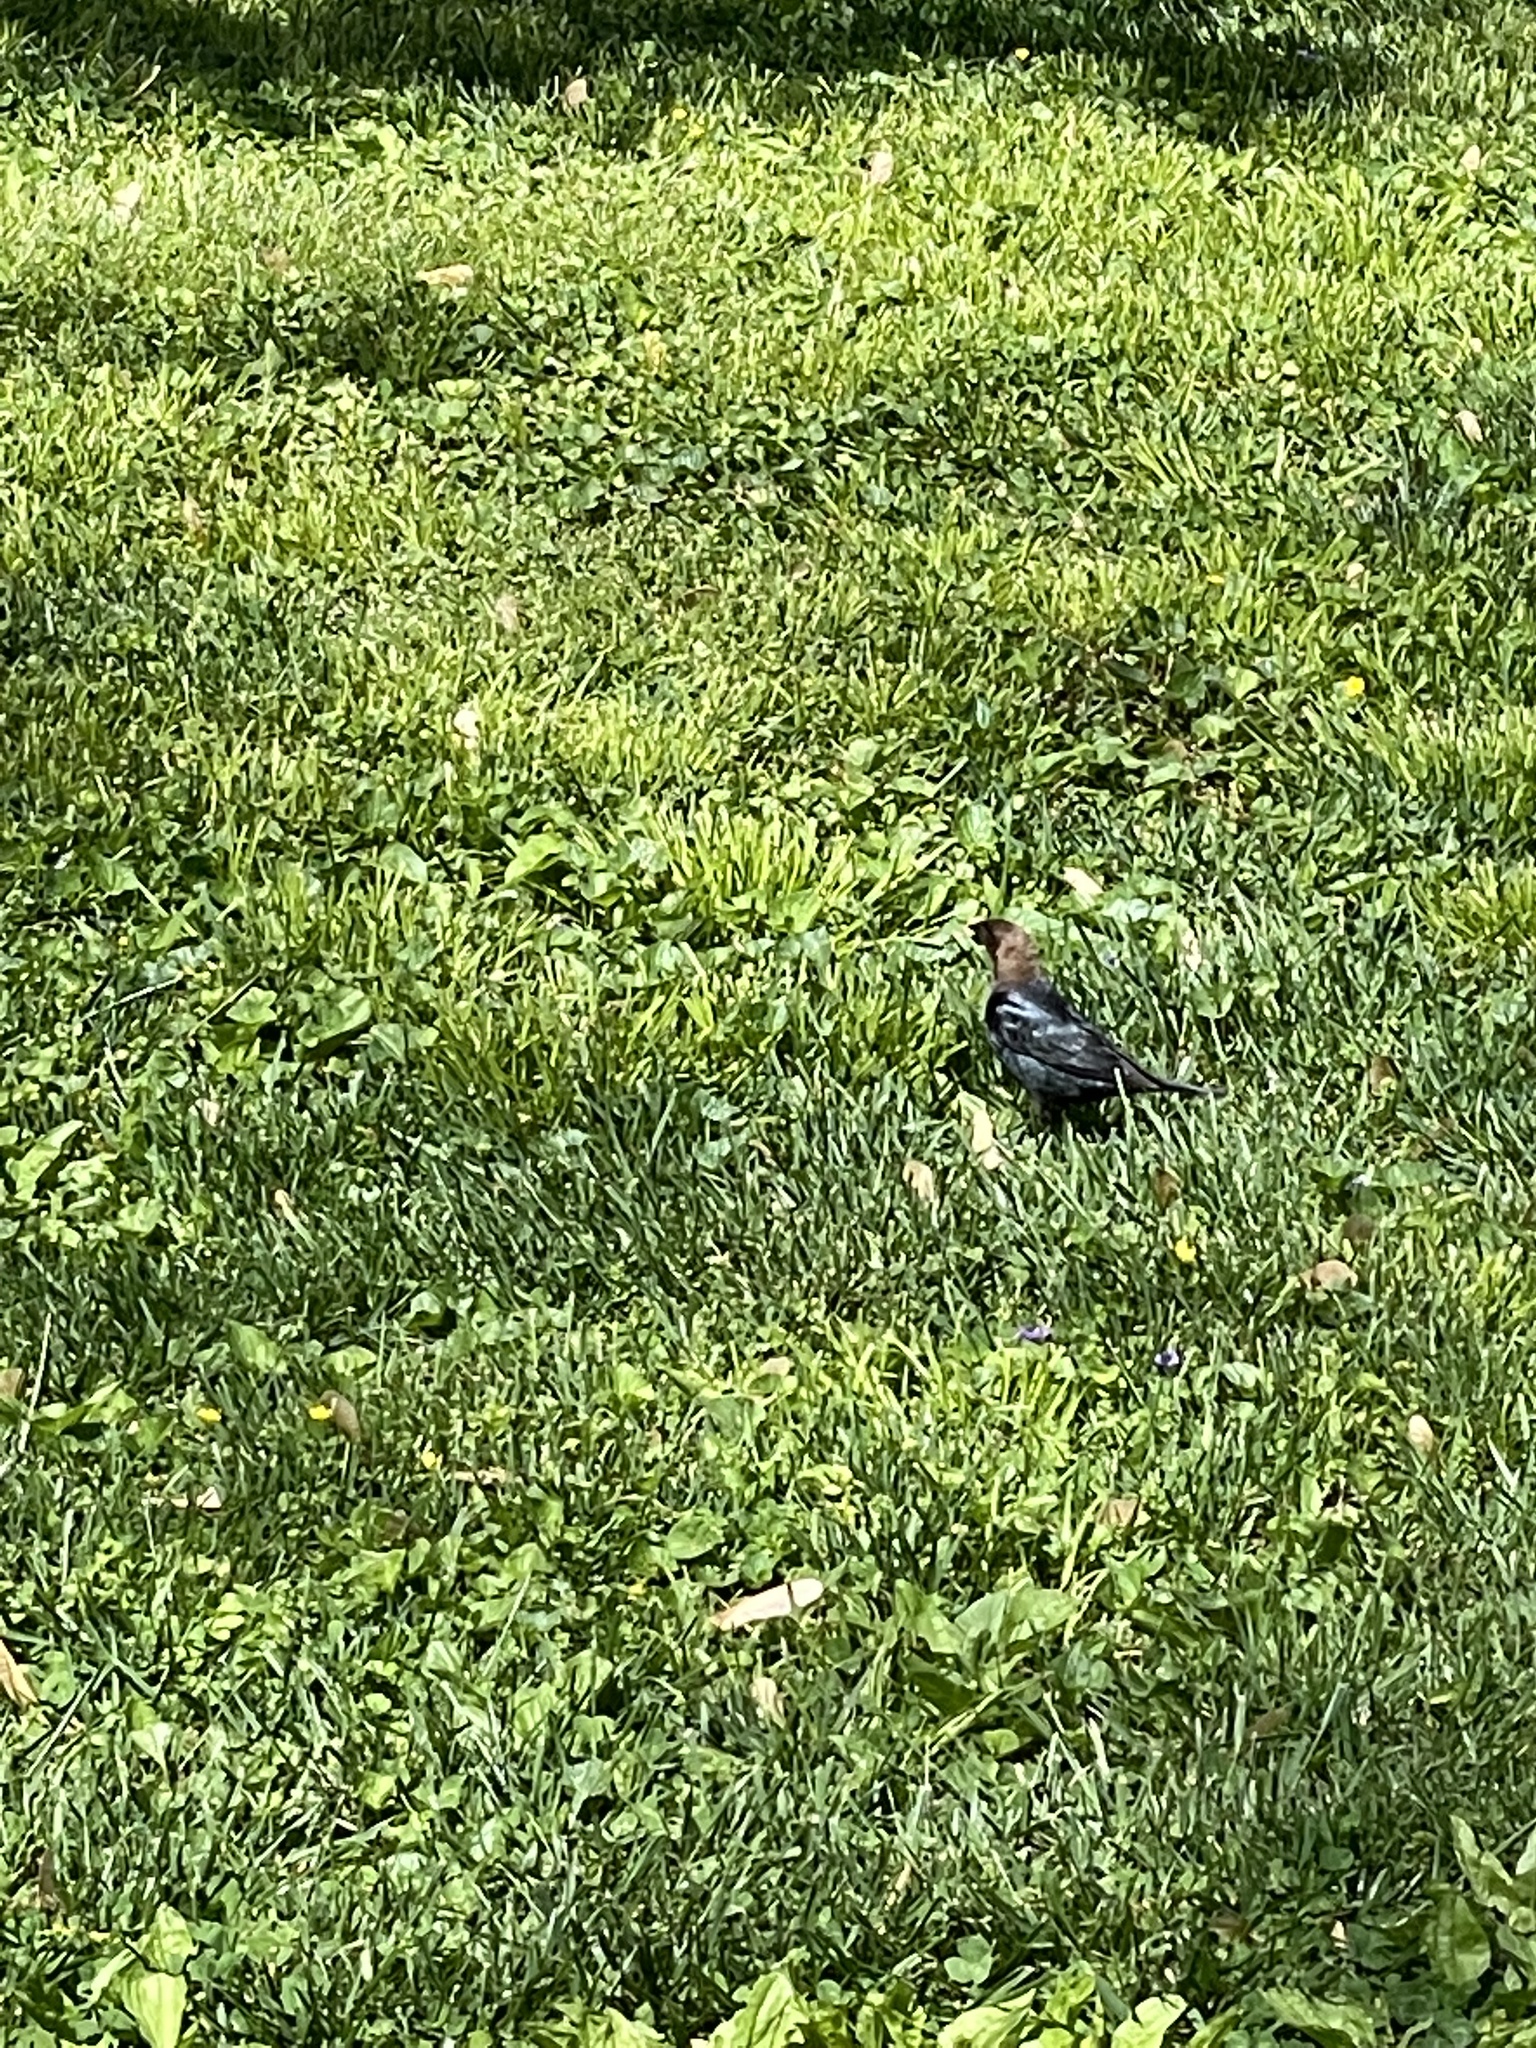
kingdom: Animalia
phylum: Chordata
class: Aves
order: Passeriformes
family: Icteridae
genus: Molothrus
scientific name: Molothrus ater
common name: Brown-headed cowbird
